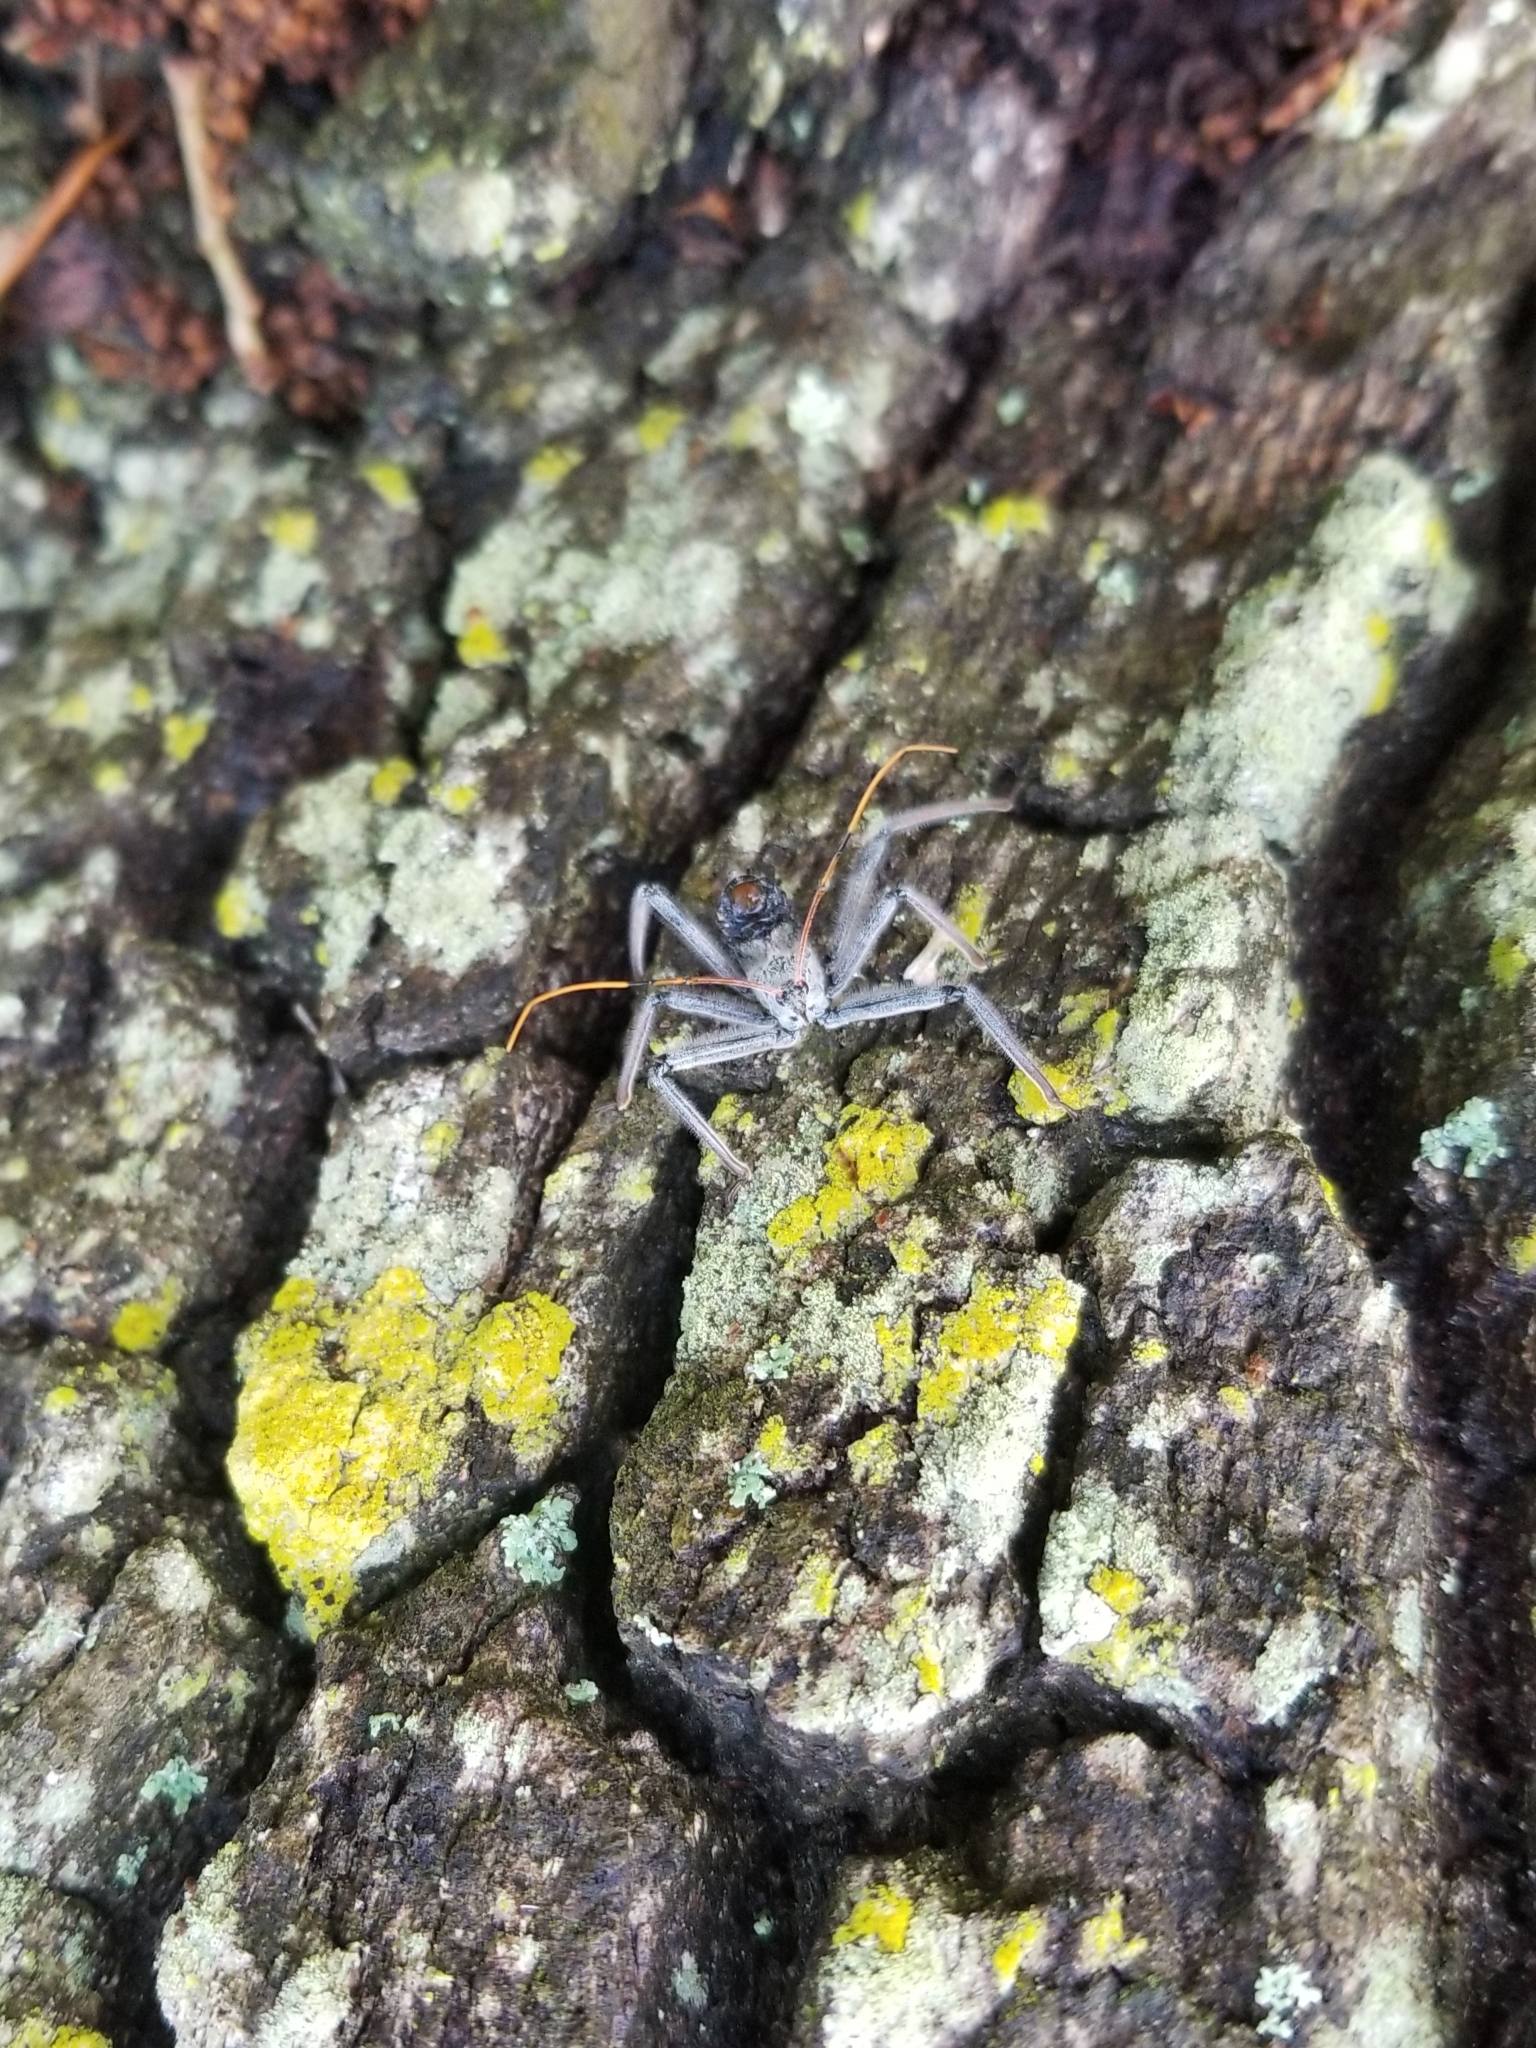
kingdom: Animalia
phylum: Arthropoda
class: Insecta
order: Hemiptera
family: Reduviidae
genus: Arilus
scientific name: Arilus cristatus
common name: North american wheel bug
